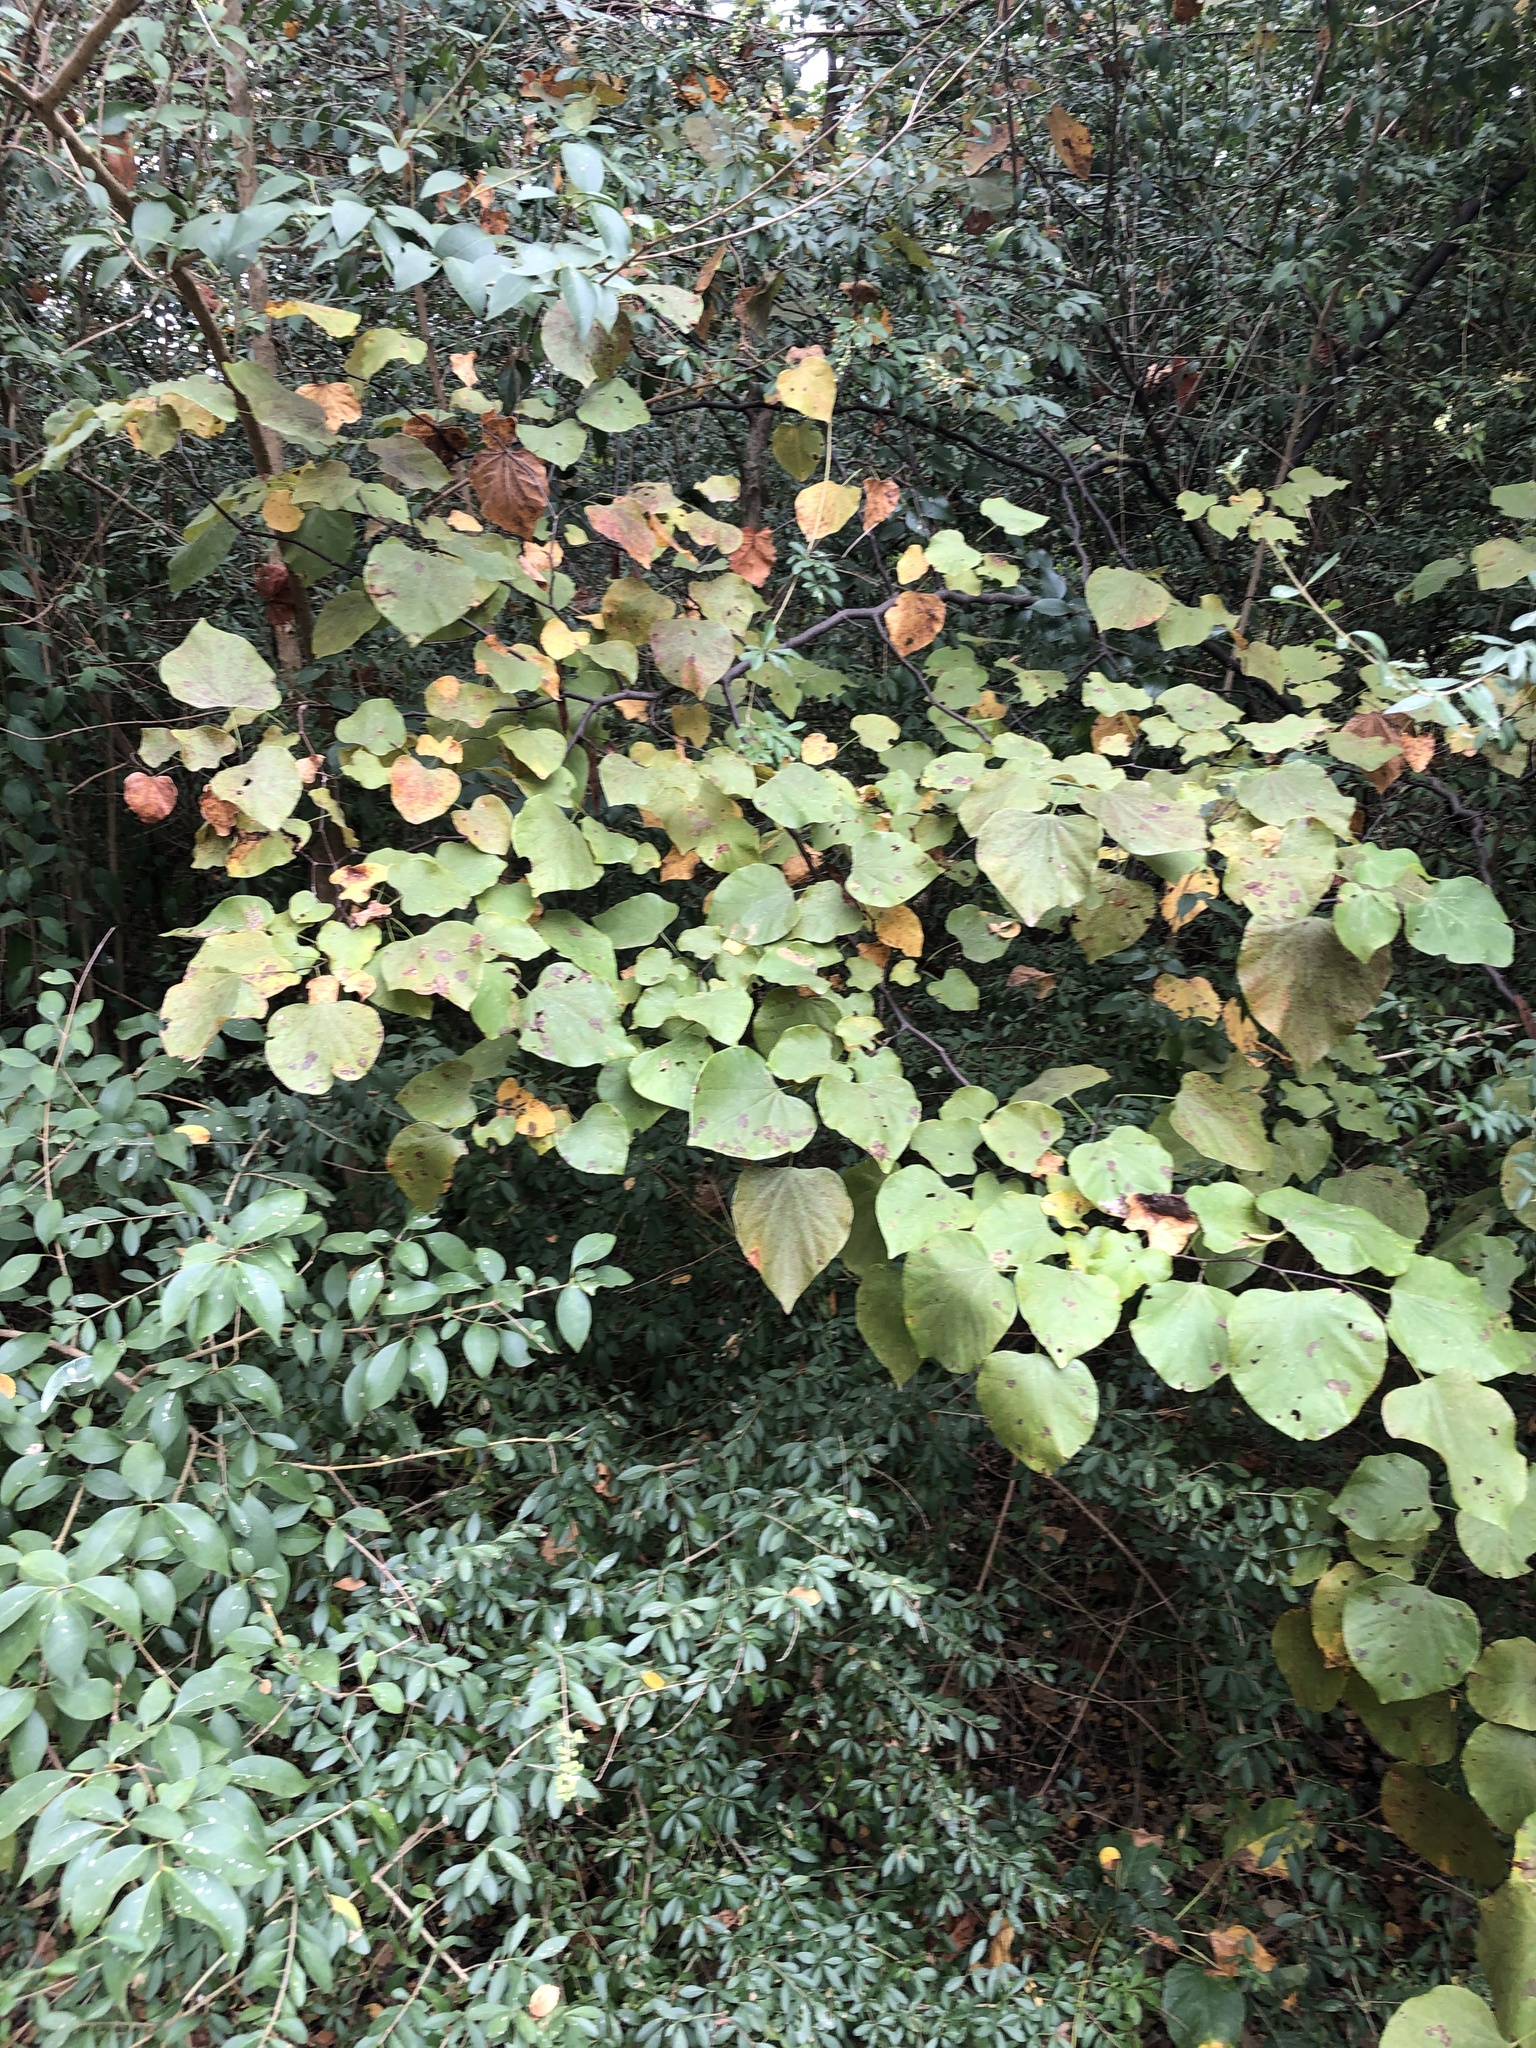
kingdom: Plantae
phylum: Tracheophyta
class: Magnoliopsida
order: Fabales
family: Fabaceae
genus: Cercis
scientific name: Cercis canadensis
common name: Eastern redbud
